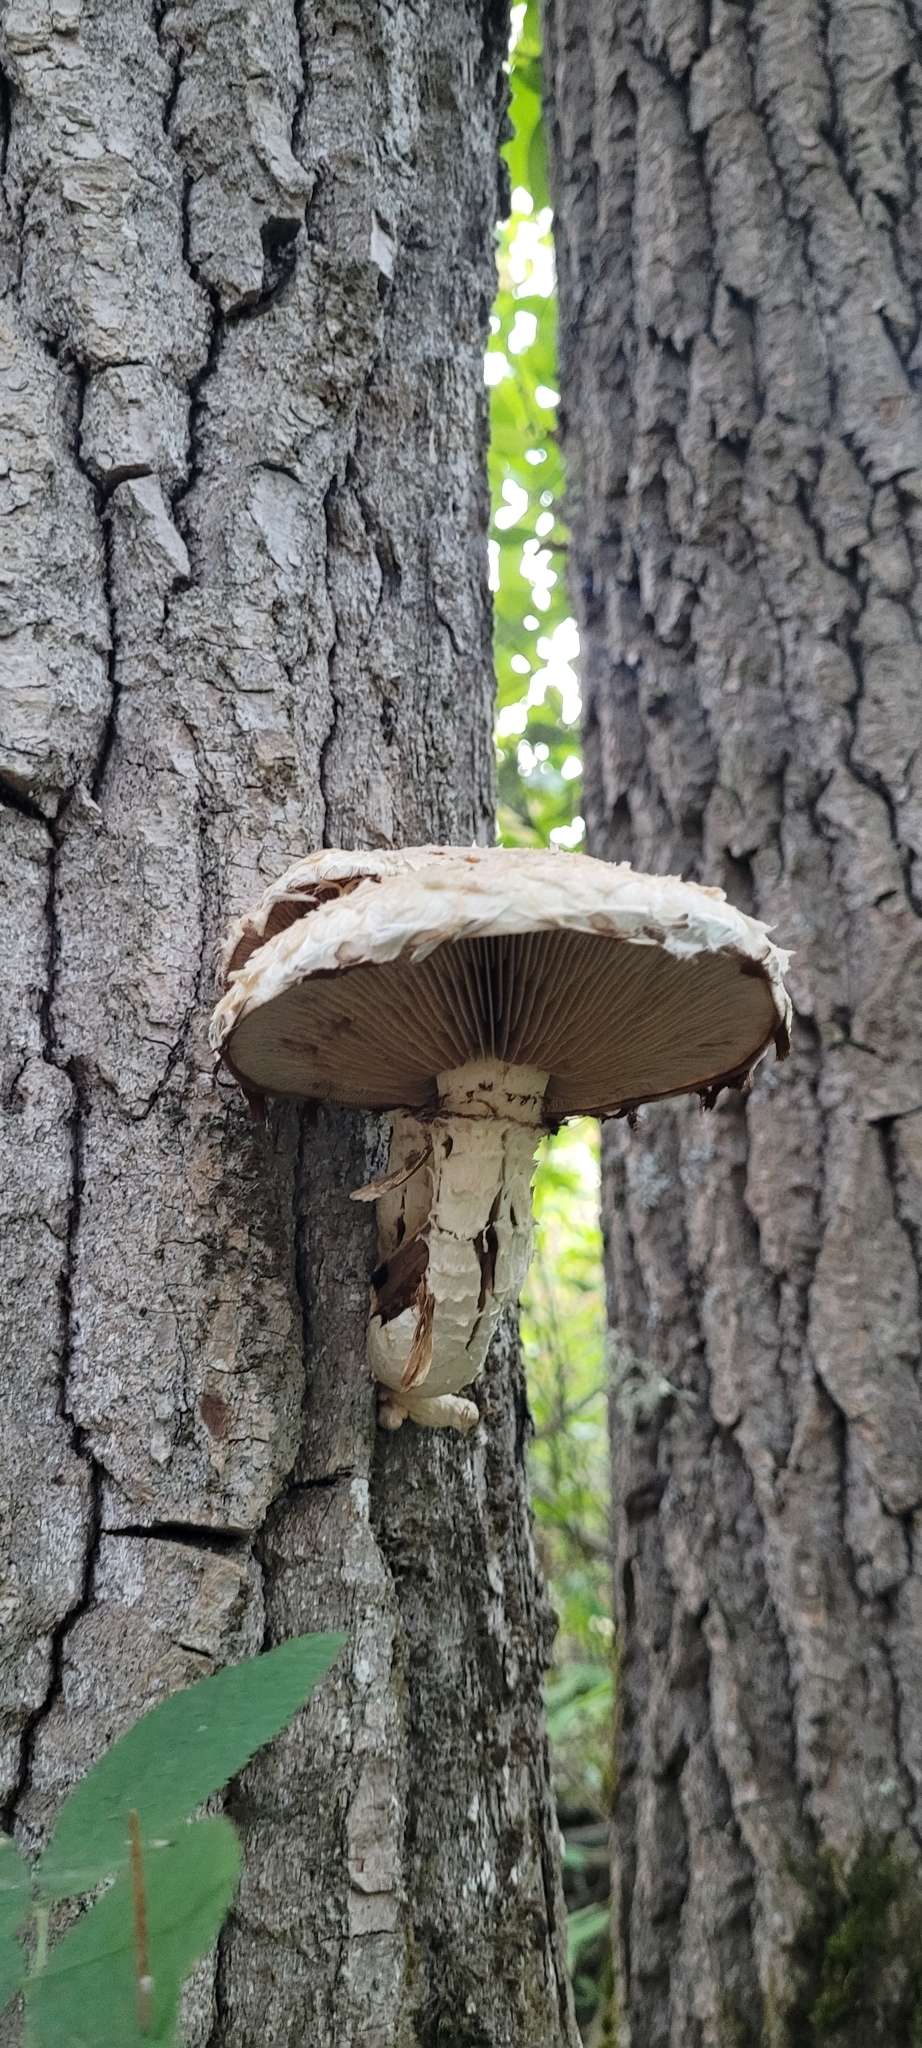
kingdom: Fungi
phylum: Basidiomycota
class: Agaricomycetes
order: Agaricales
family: Strophariaceae
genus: Pholiota
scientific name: Pholiota populnea
